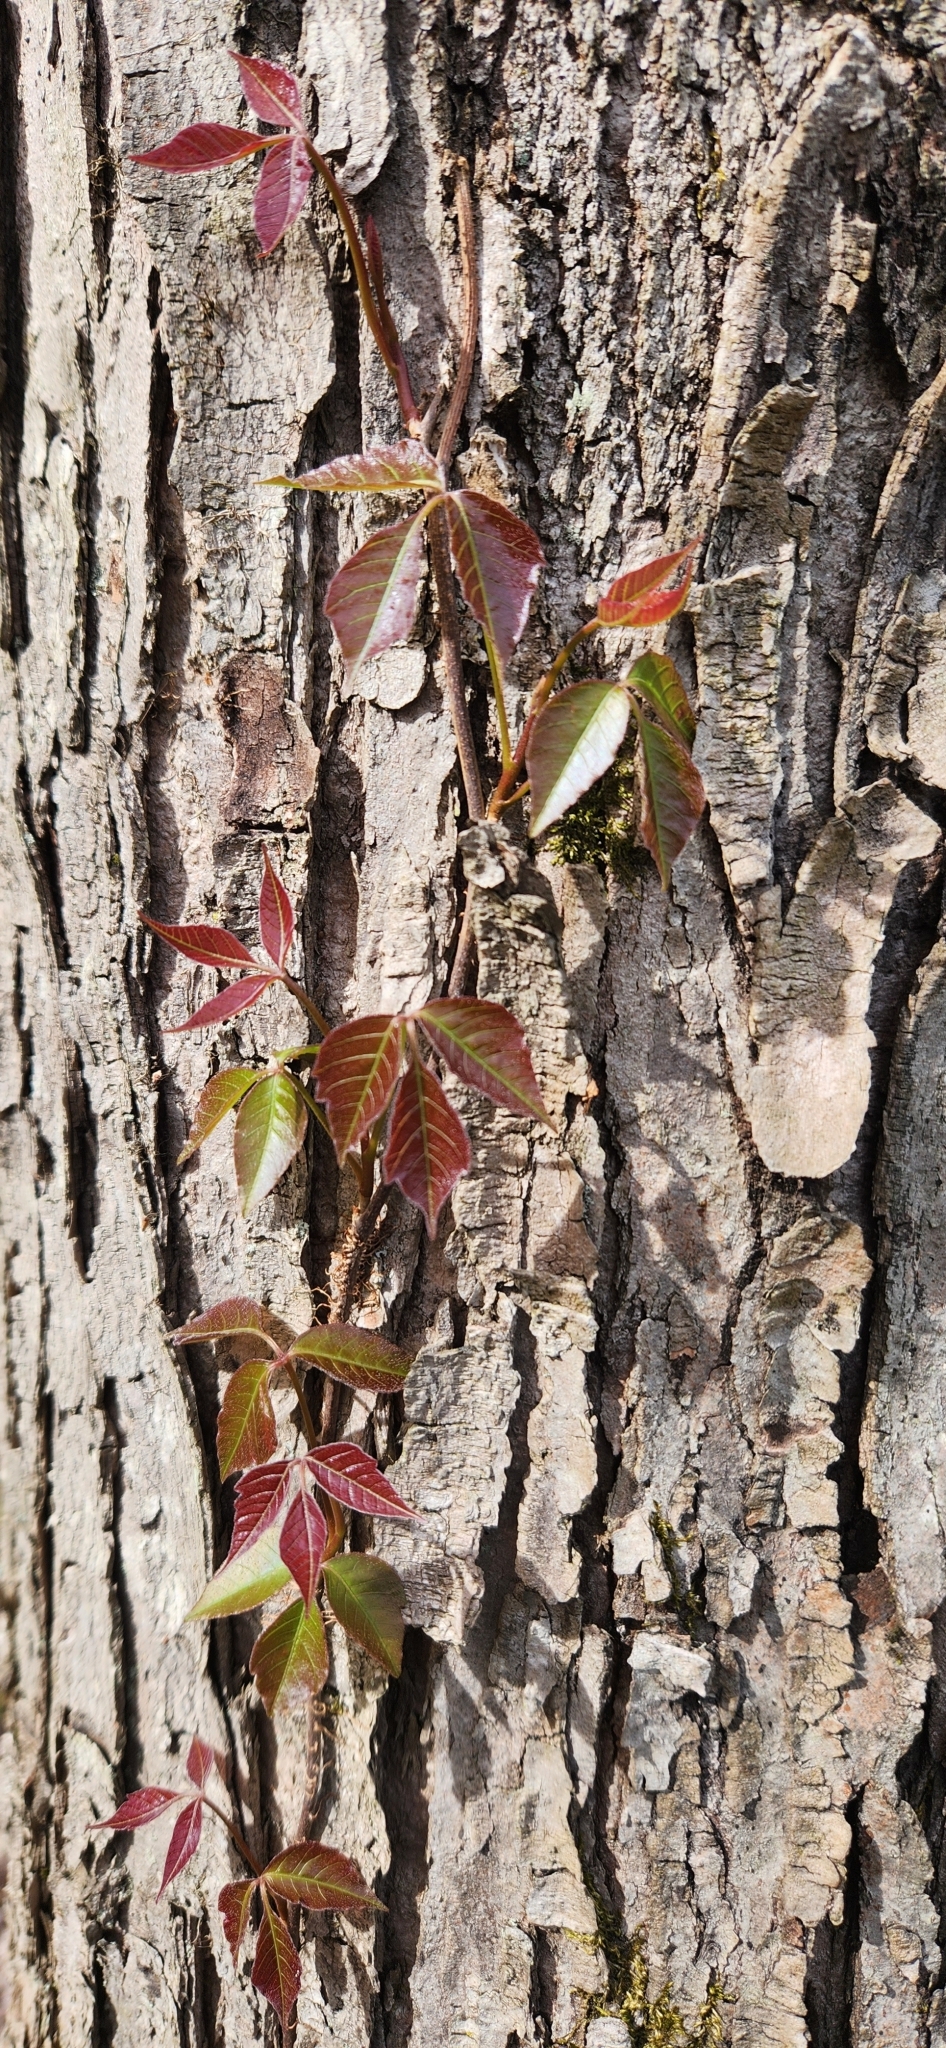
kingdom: Plantae
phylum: Tracheophyta
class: Magnoliopsida
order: Sapindales
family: Anacardiaceae
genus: Toxicodendron
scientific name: Toxicodendron radicans
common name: Poison ivy
